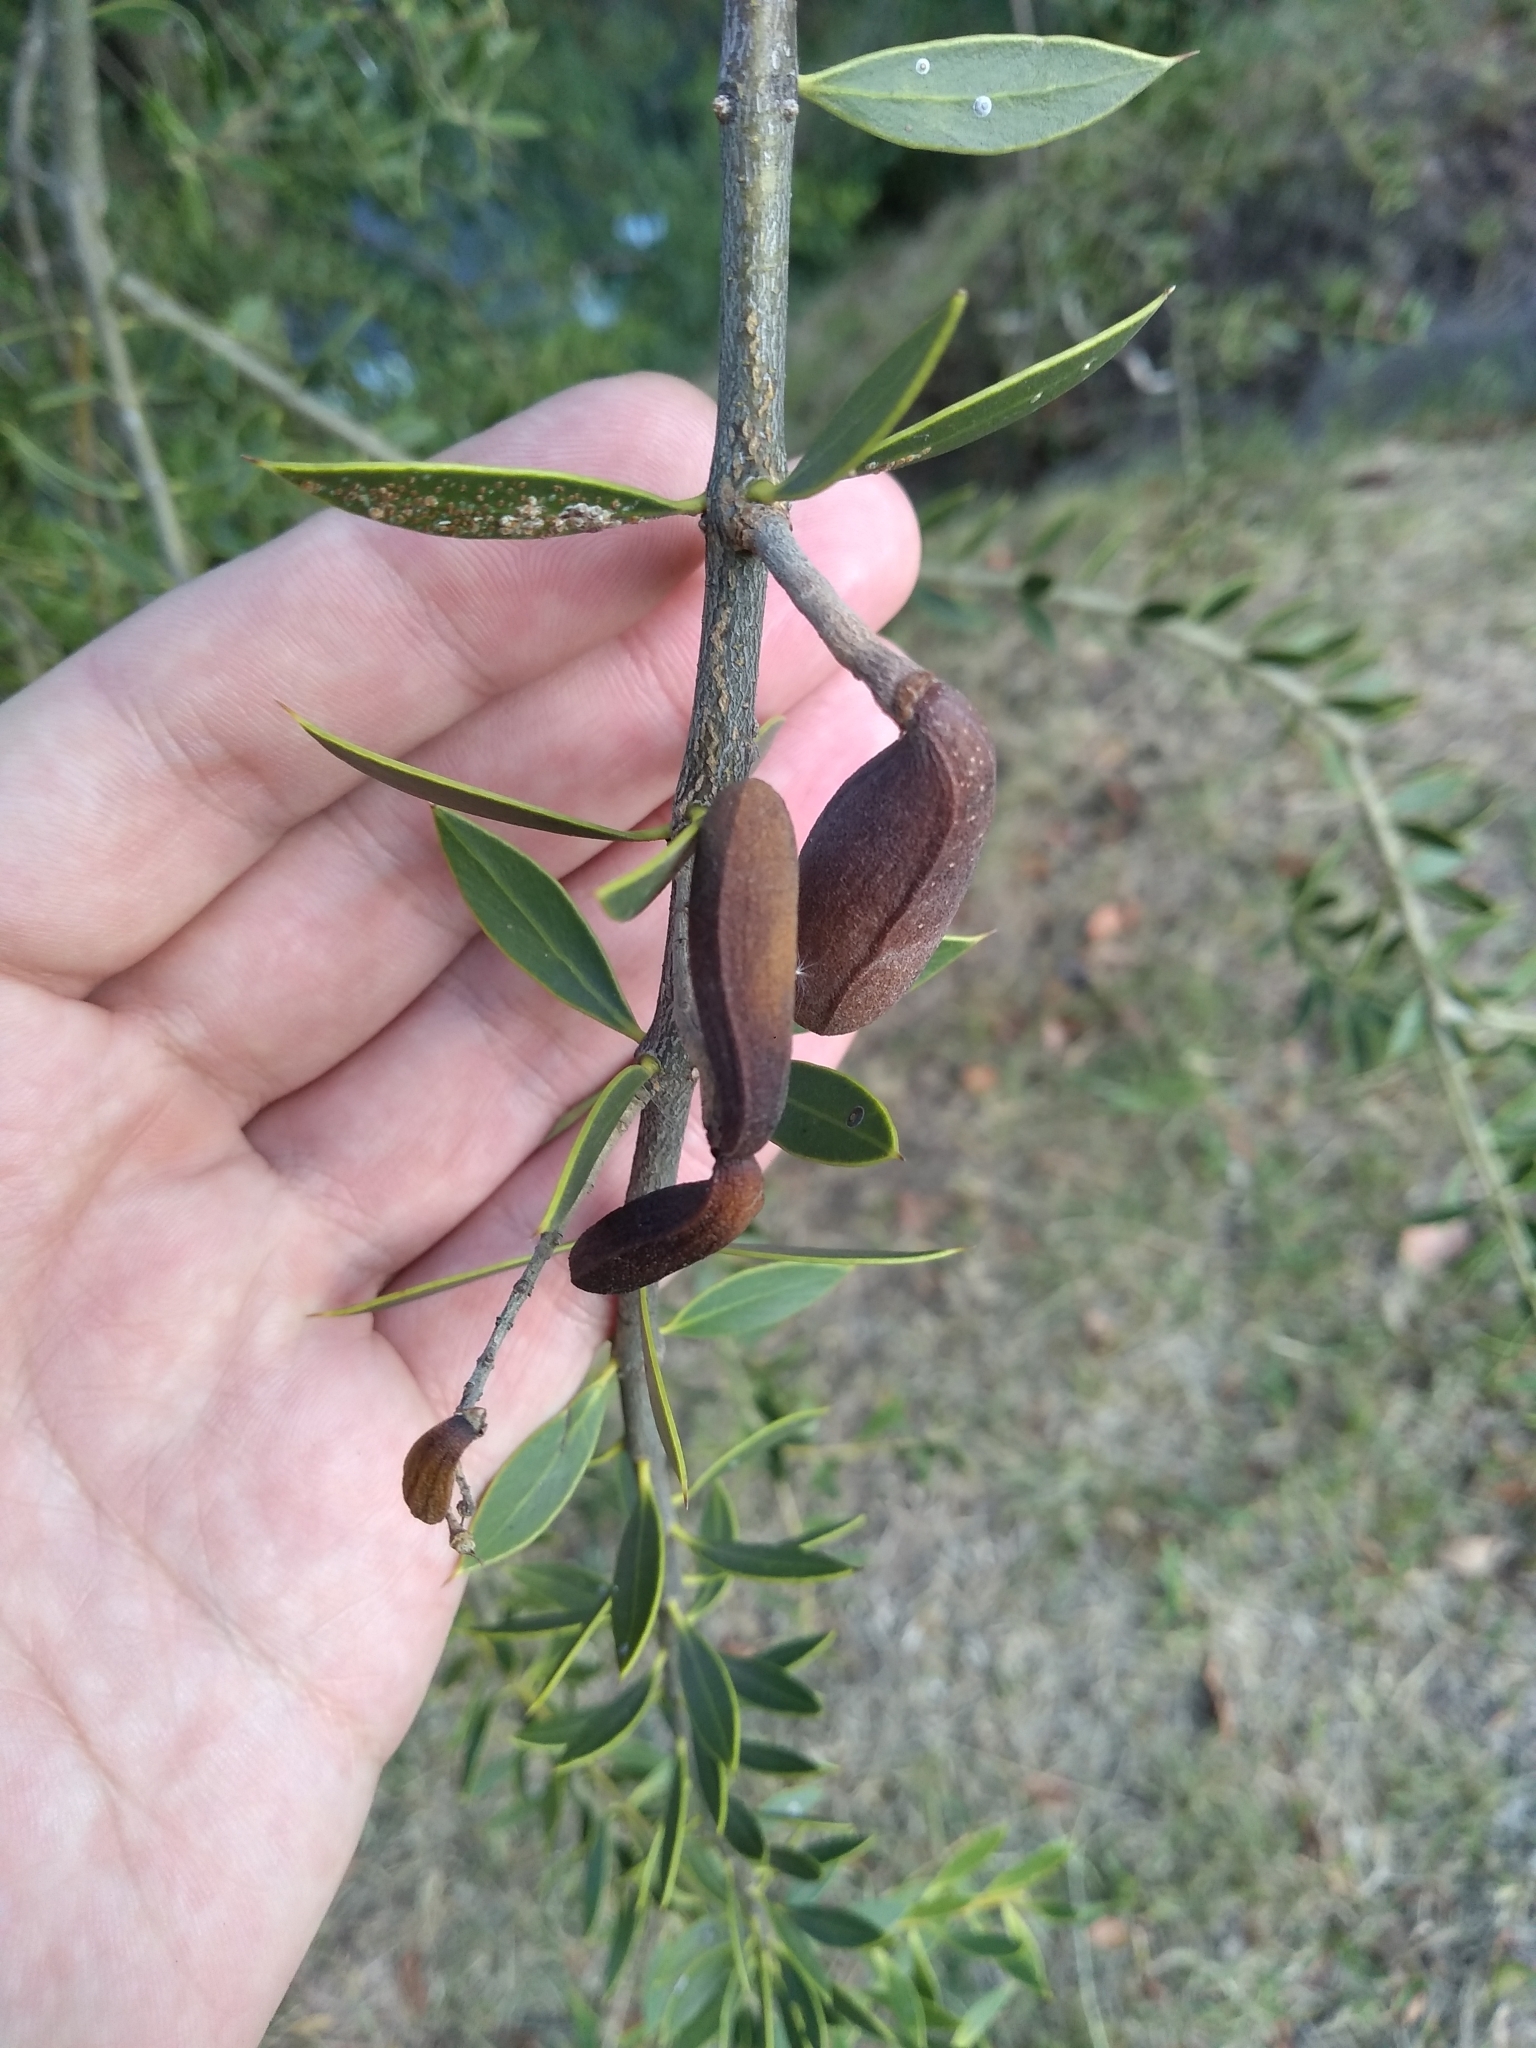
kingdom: Plantae
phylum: Tracheophyta
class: Magnoliopsida
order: Gentianales
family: Apocynaceae
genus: Aspidosperma
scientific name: Aspidosperma quebracho-blanco
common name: White quebracho
